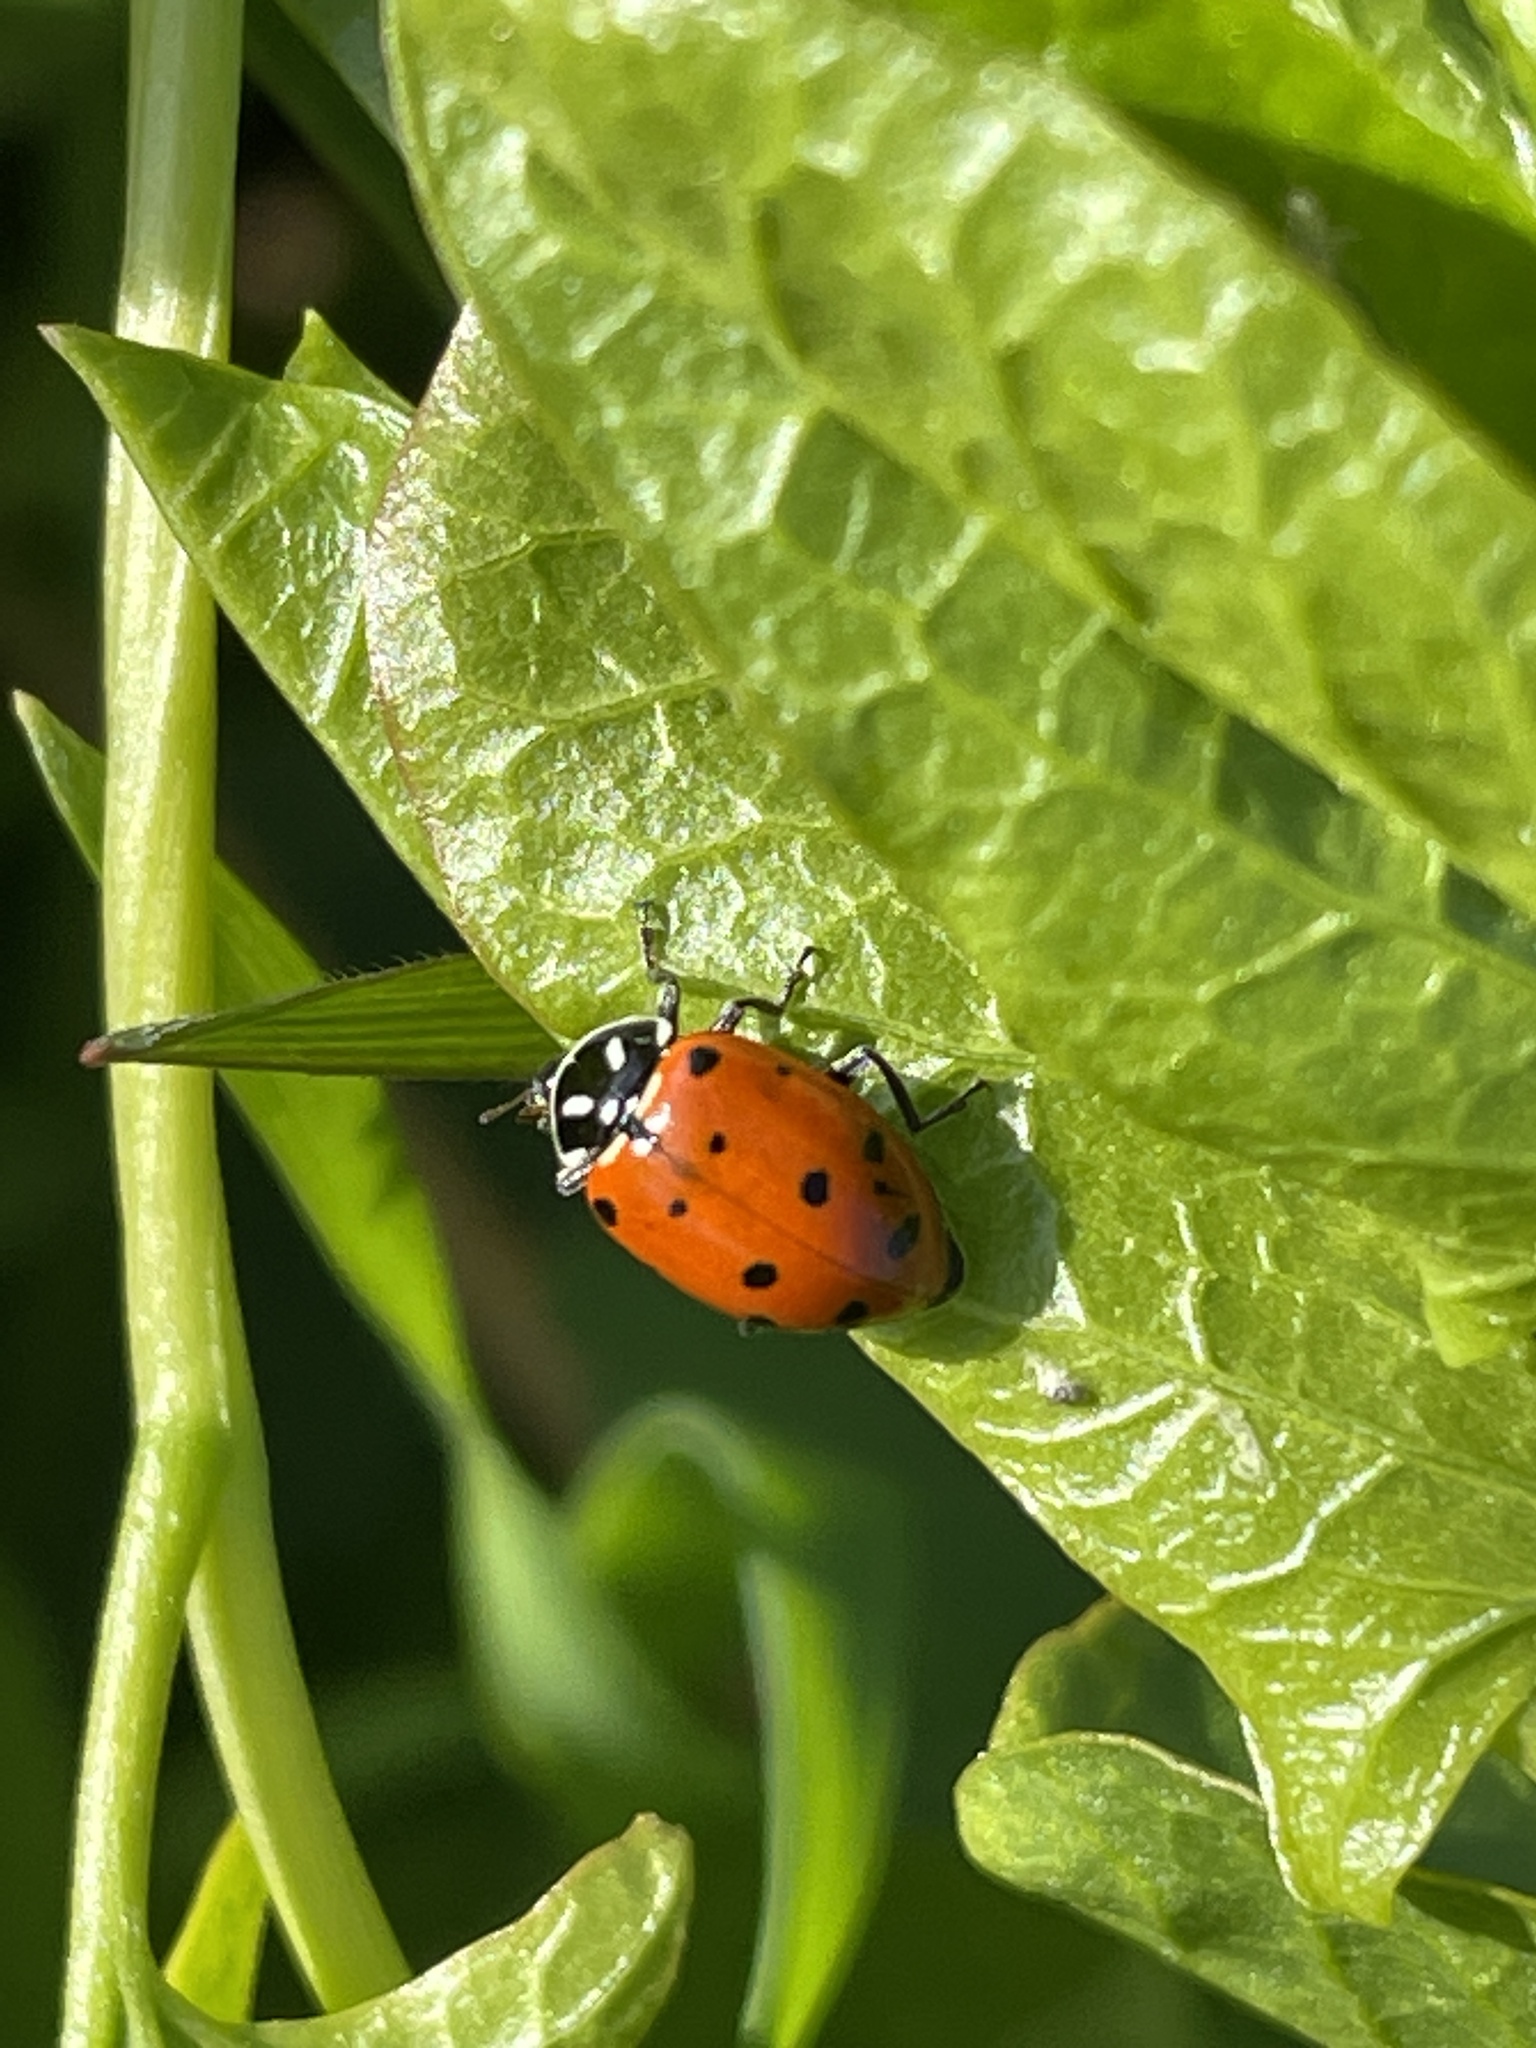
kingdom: Animalia
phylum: Arthropoda
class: Insecta
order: Coleoptera
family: Coccinellidae
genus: Hippodamia
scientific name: Hippodamia convergens
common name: Convergent lady beetle
